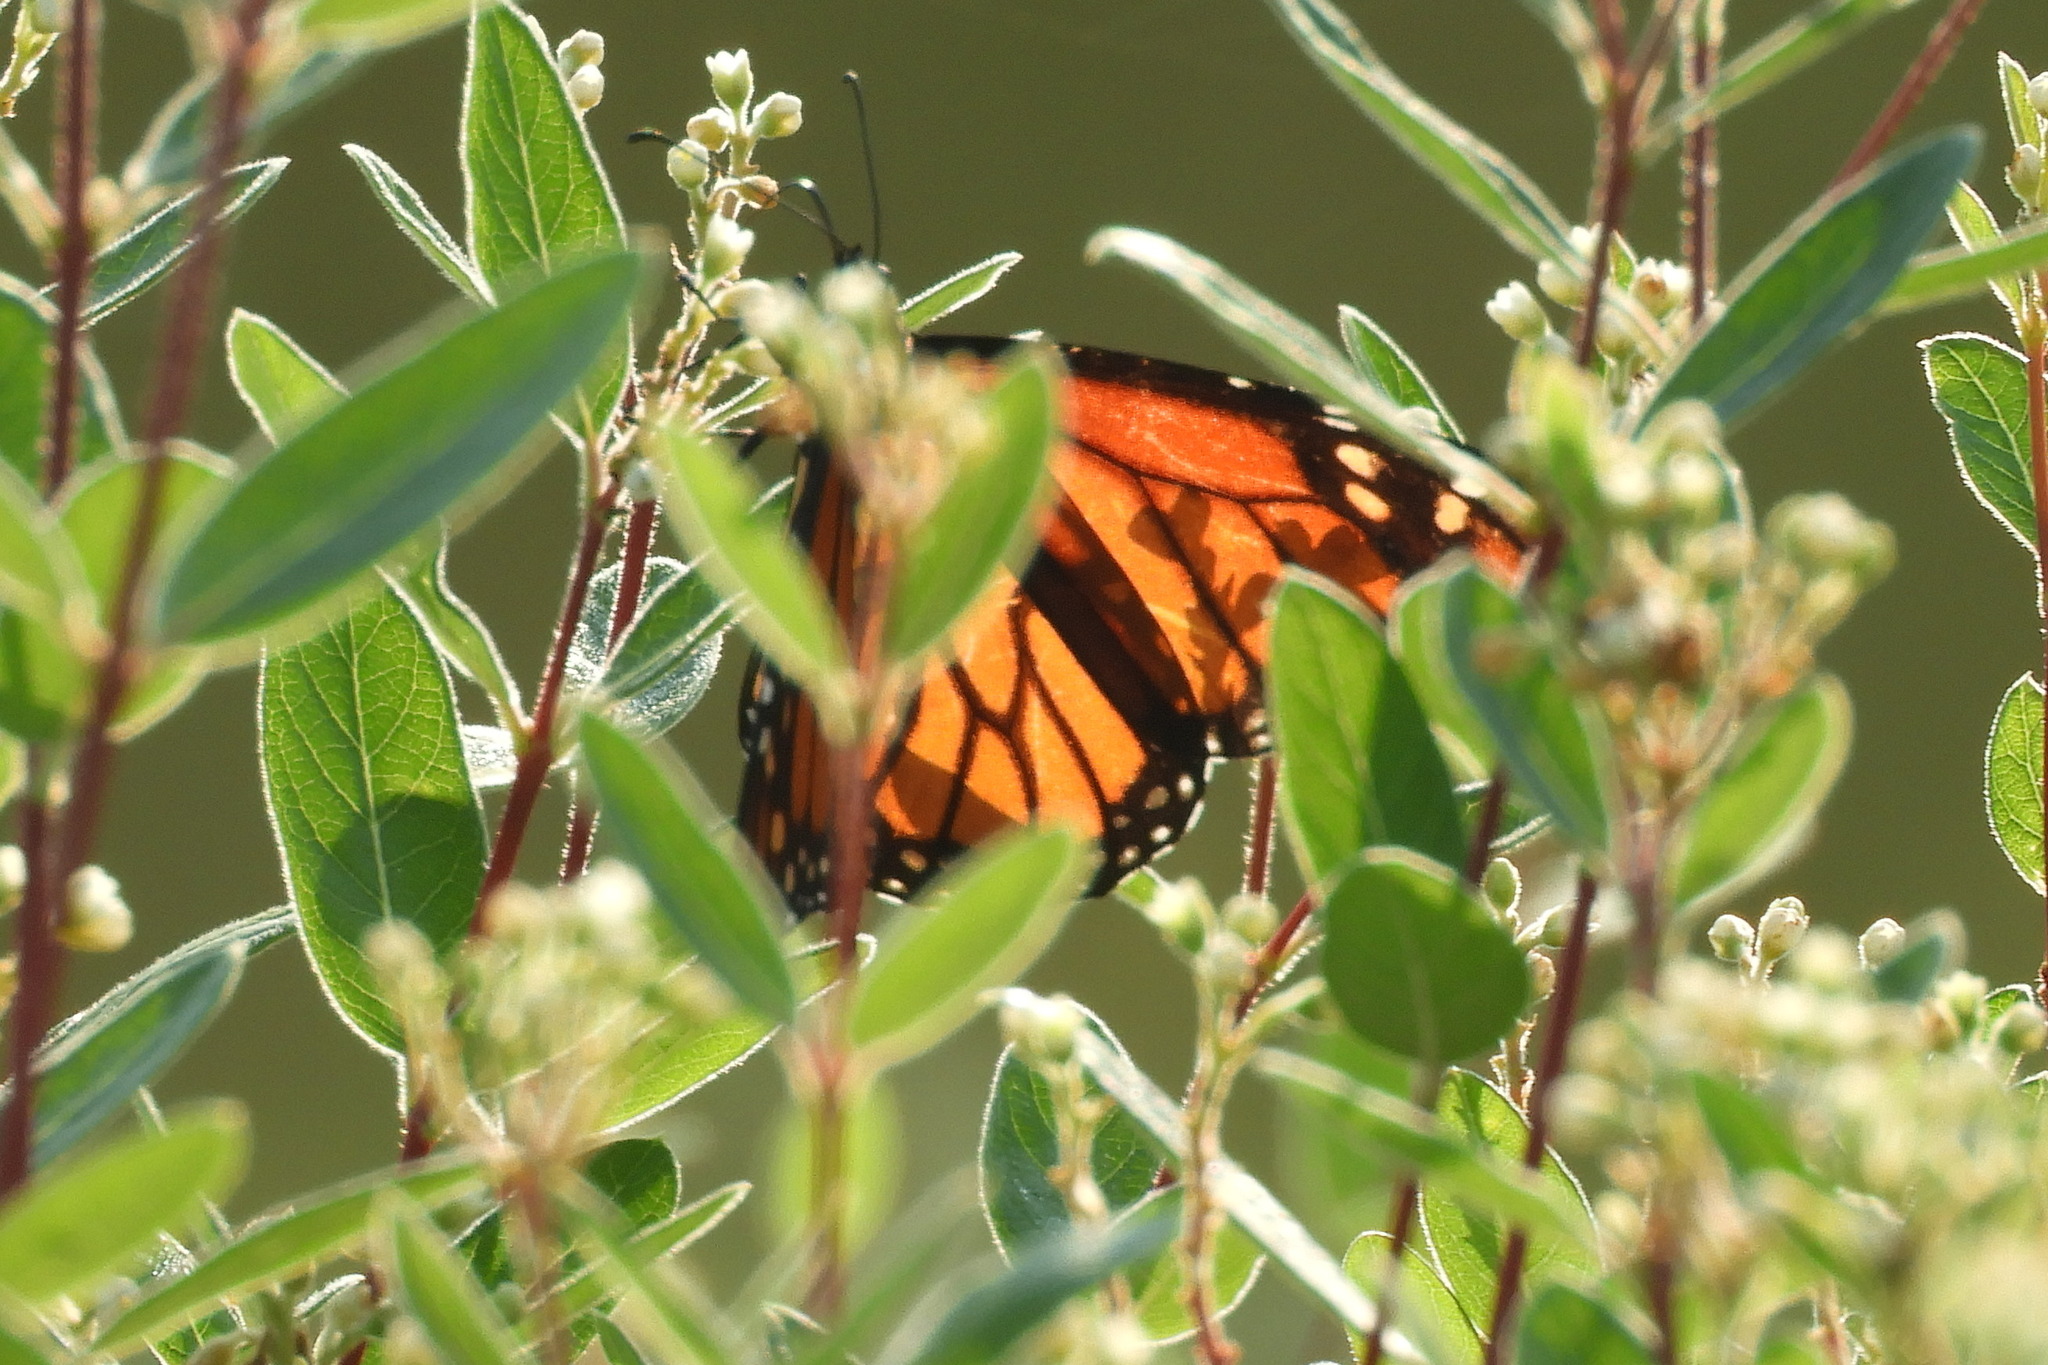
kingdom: Animalia
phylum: Arthropoda
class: Insecta
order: Lepidoptera
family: Nymphalidae
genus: Danaus
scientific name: Danaus plexippus
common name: Monarch
